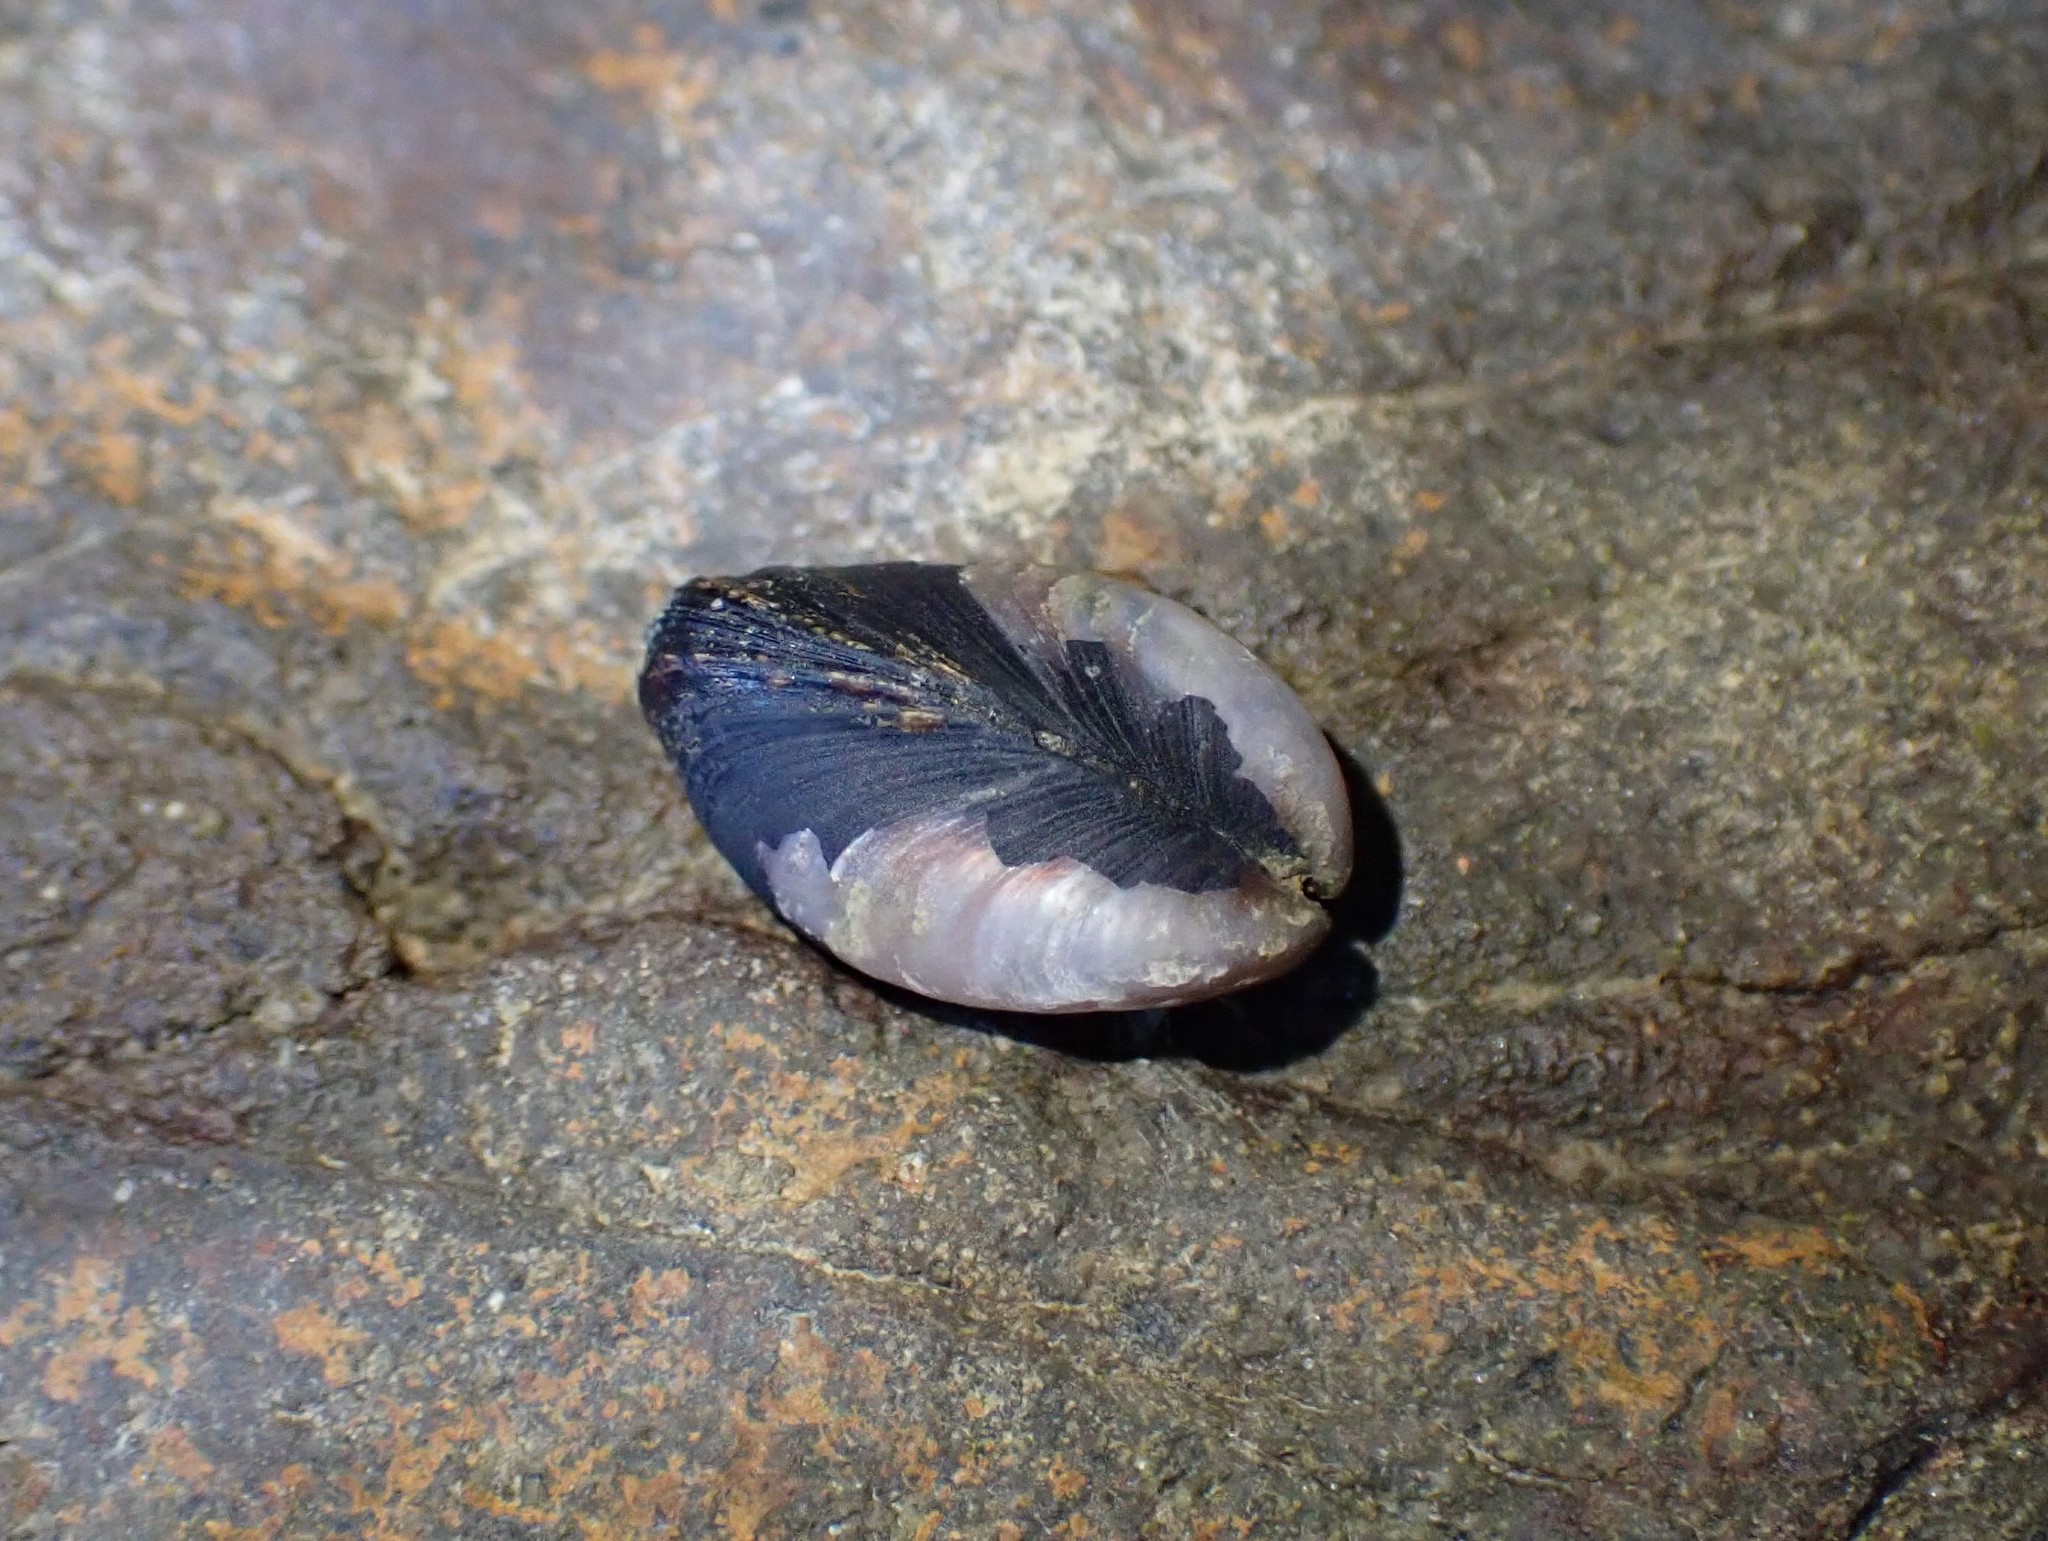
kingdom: Animalia
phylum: Mollusca
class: Bivalvia
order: Mytilida
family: Mytilidae
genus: Xenostrobus
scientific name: Xenostrobus neozelanicus
